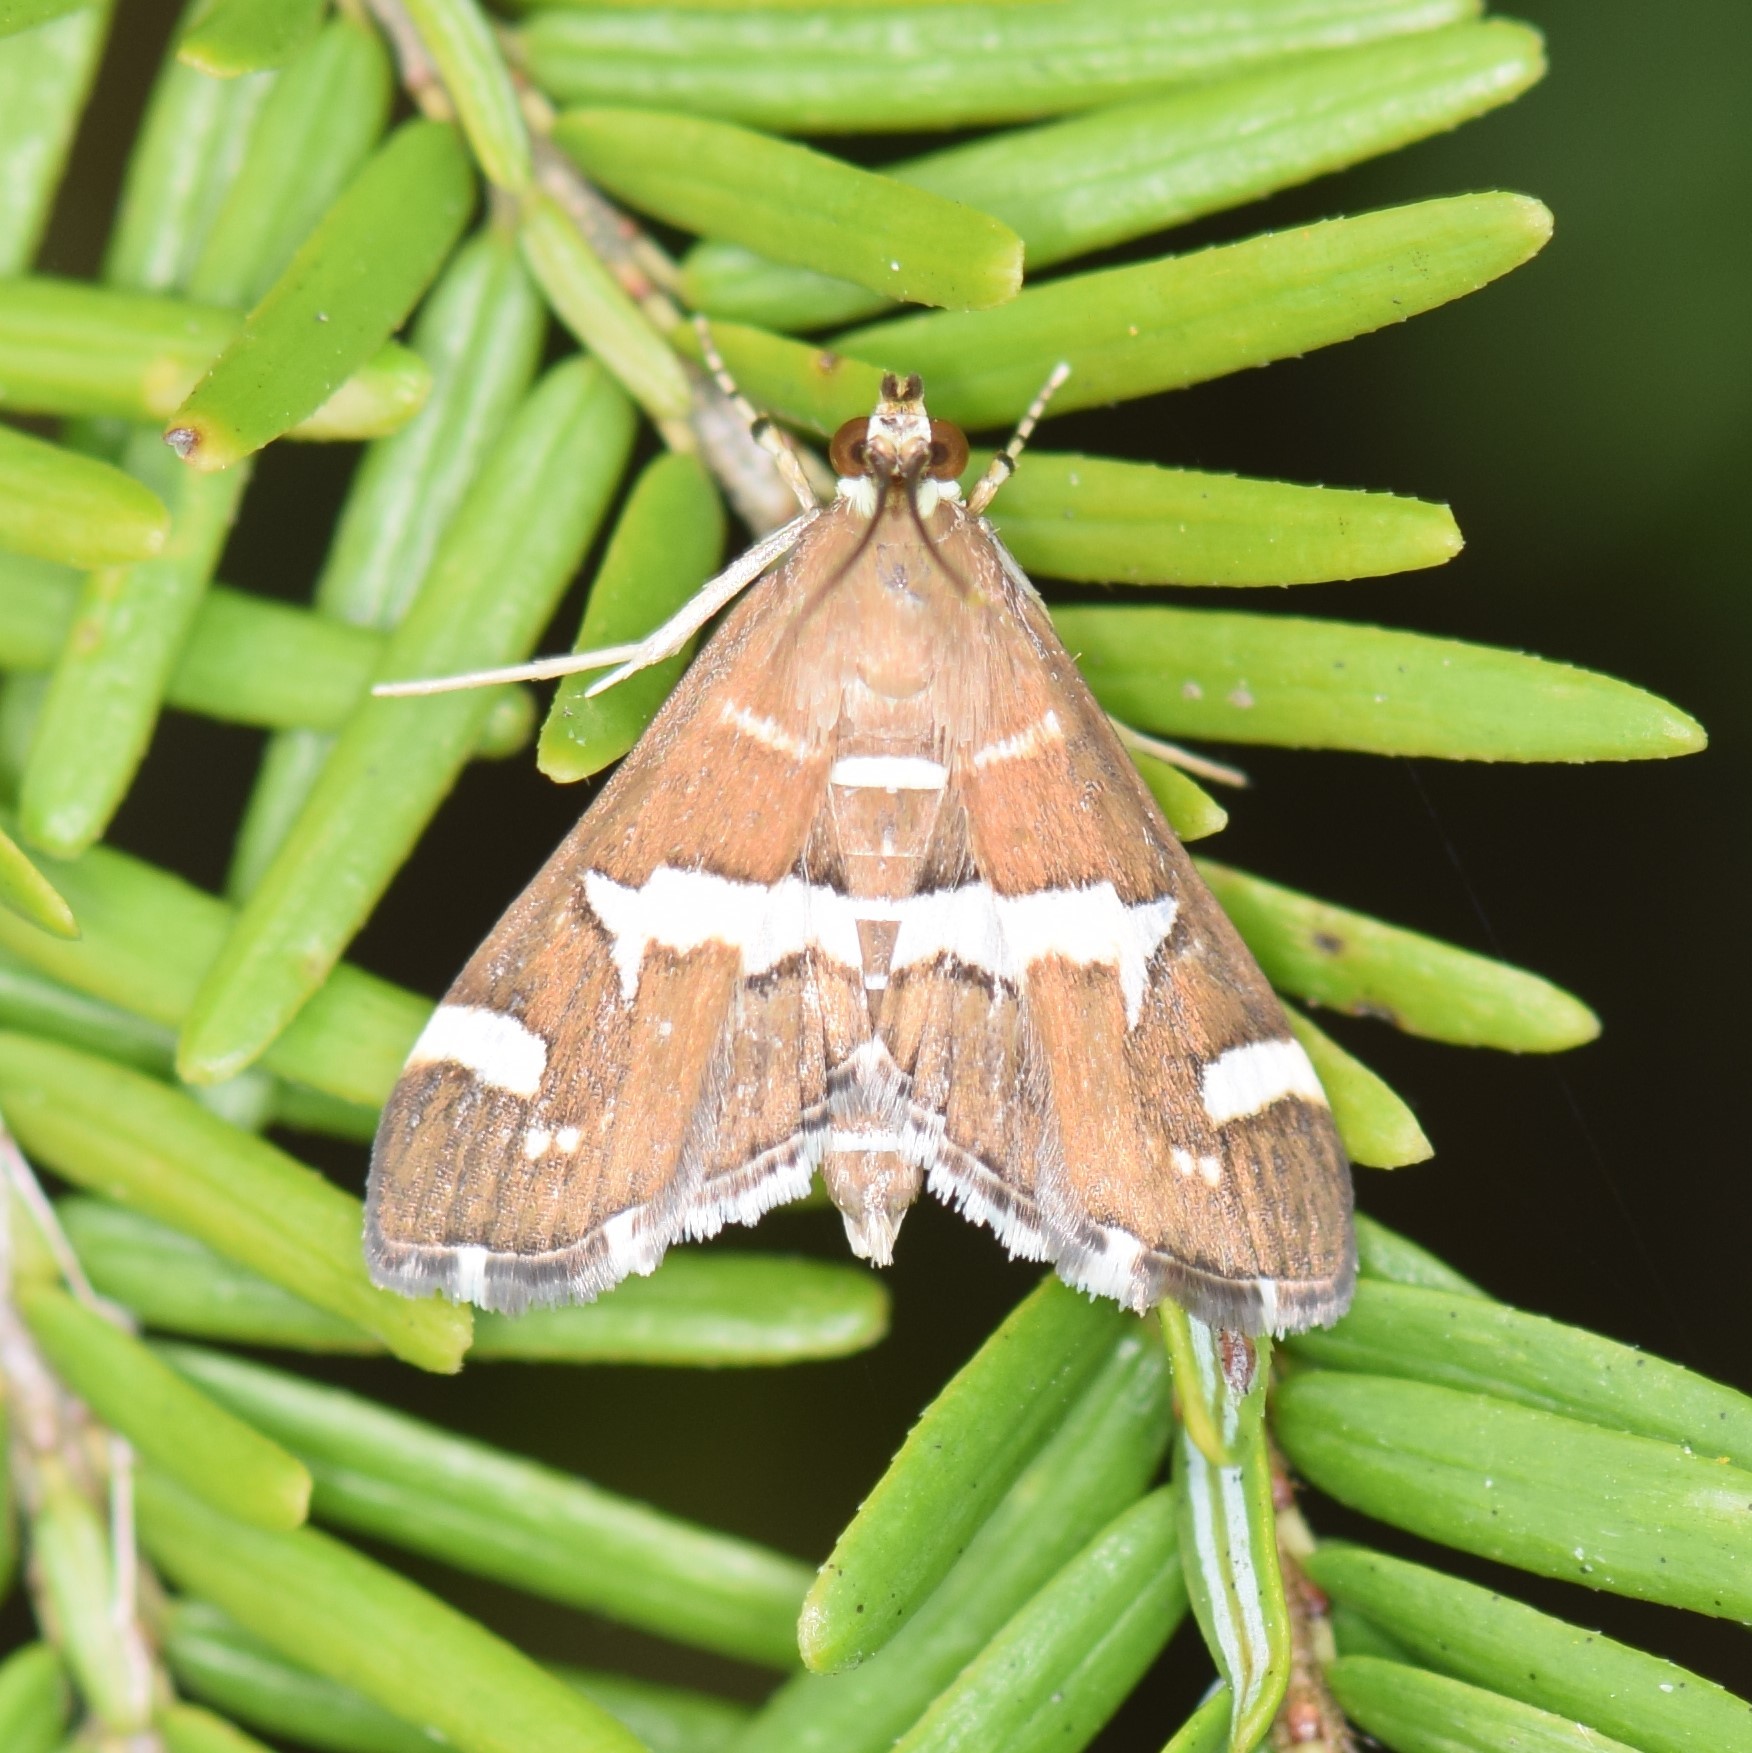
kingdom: Animalia
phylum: Arthropoda
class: Insecta
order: Lepidoptera
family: Crambidae
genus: Spoladea
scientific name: Spoladea recurvalis
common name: Beet webworm moth
